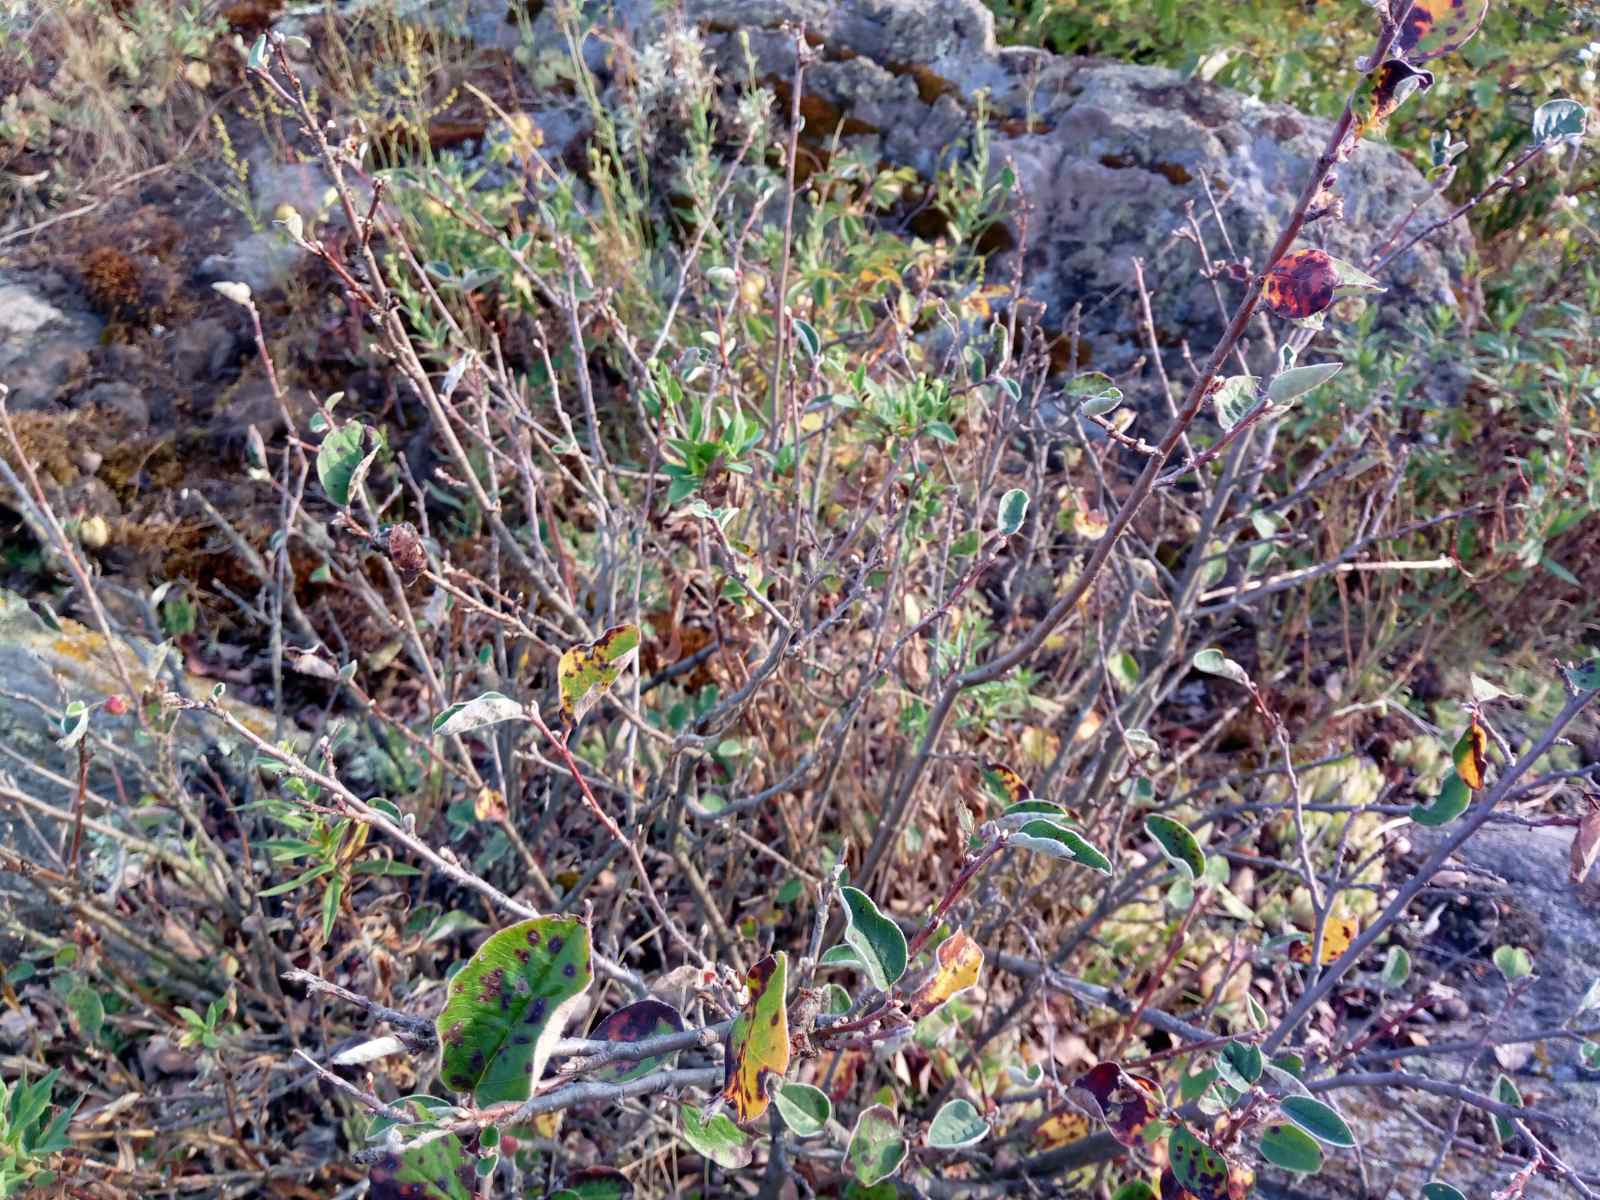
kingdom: Plantae
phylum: Tracheophyta
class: Magnoliopsida
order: Rosales
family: Rosaceae
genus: Cotoneaster
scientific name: Cotoneaster melanocarpus
